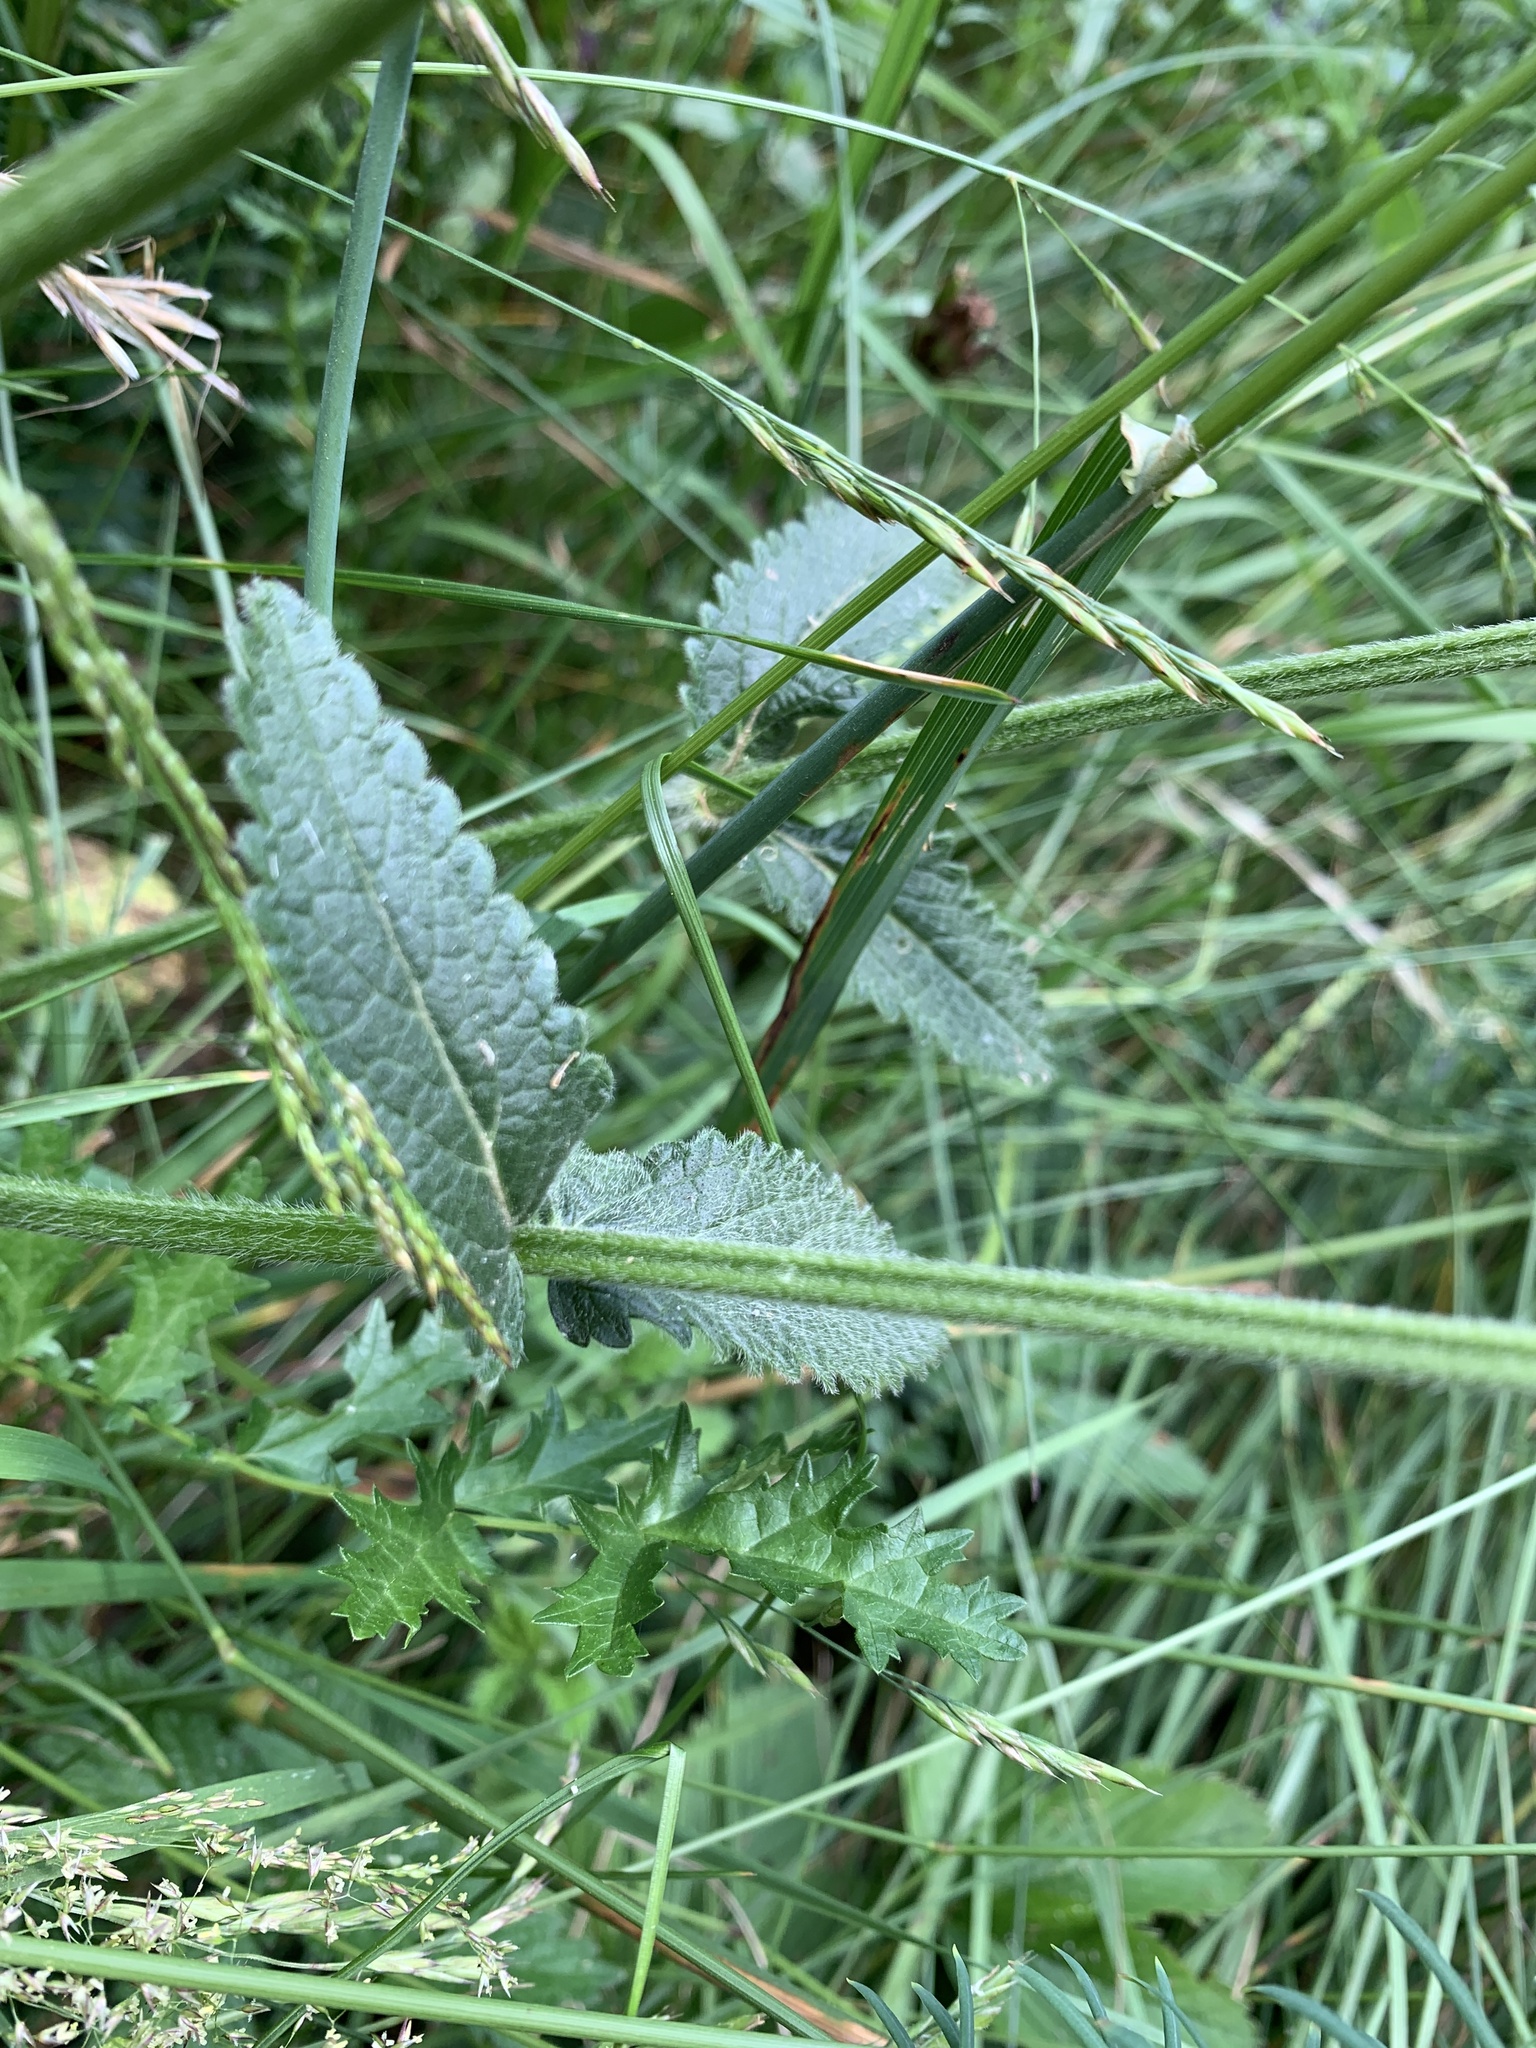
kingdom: Plantae
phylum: Tracheophyta
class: Magnoliopsida
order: Lamiales
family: Lamiaceae
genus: Betonica
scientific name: Betonica officinalis
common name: Bishop's-wort
